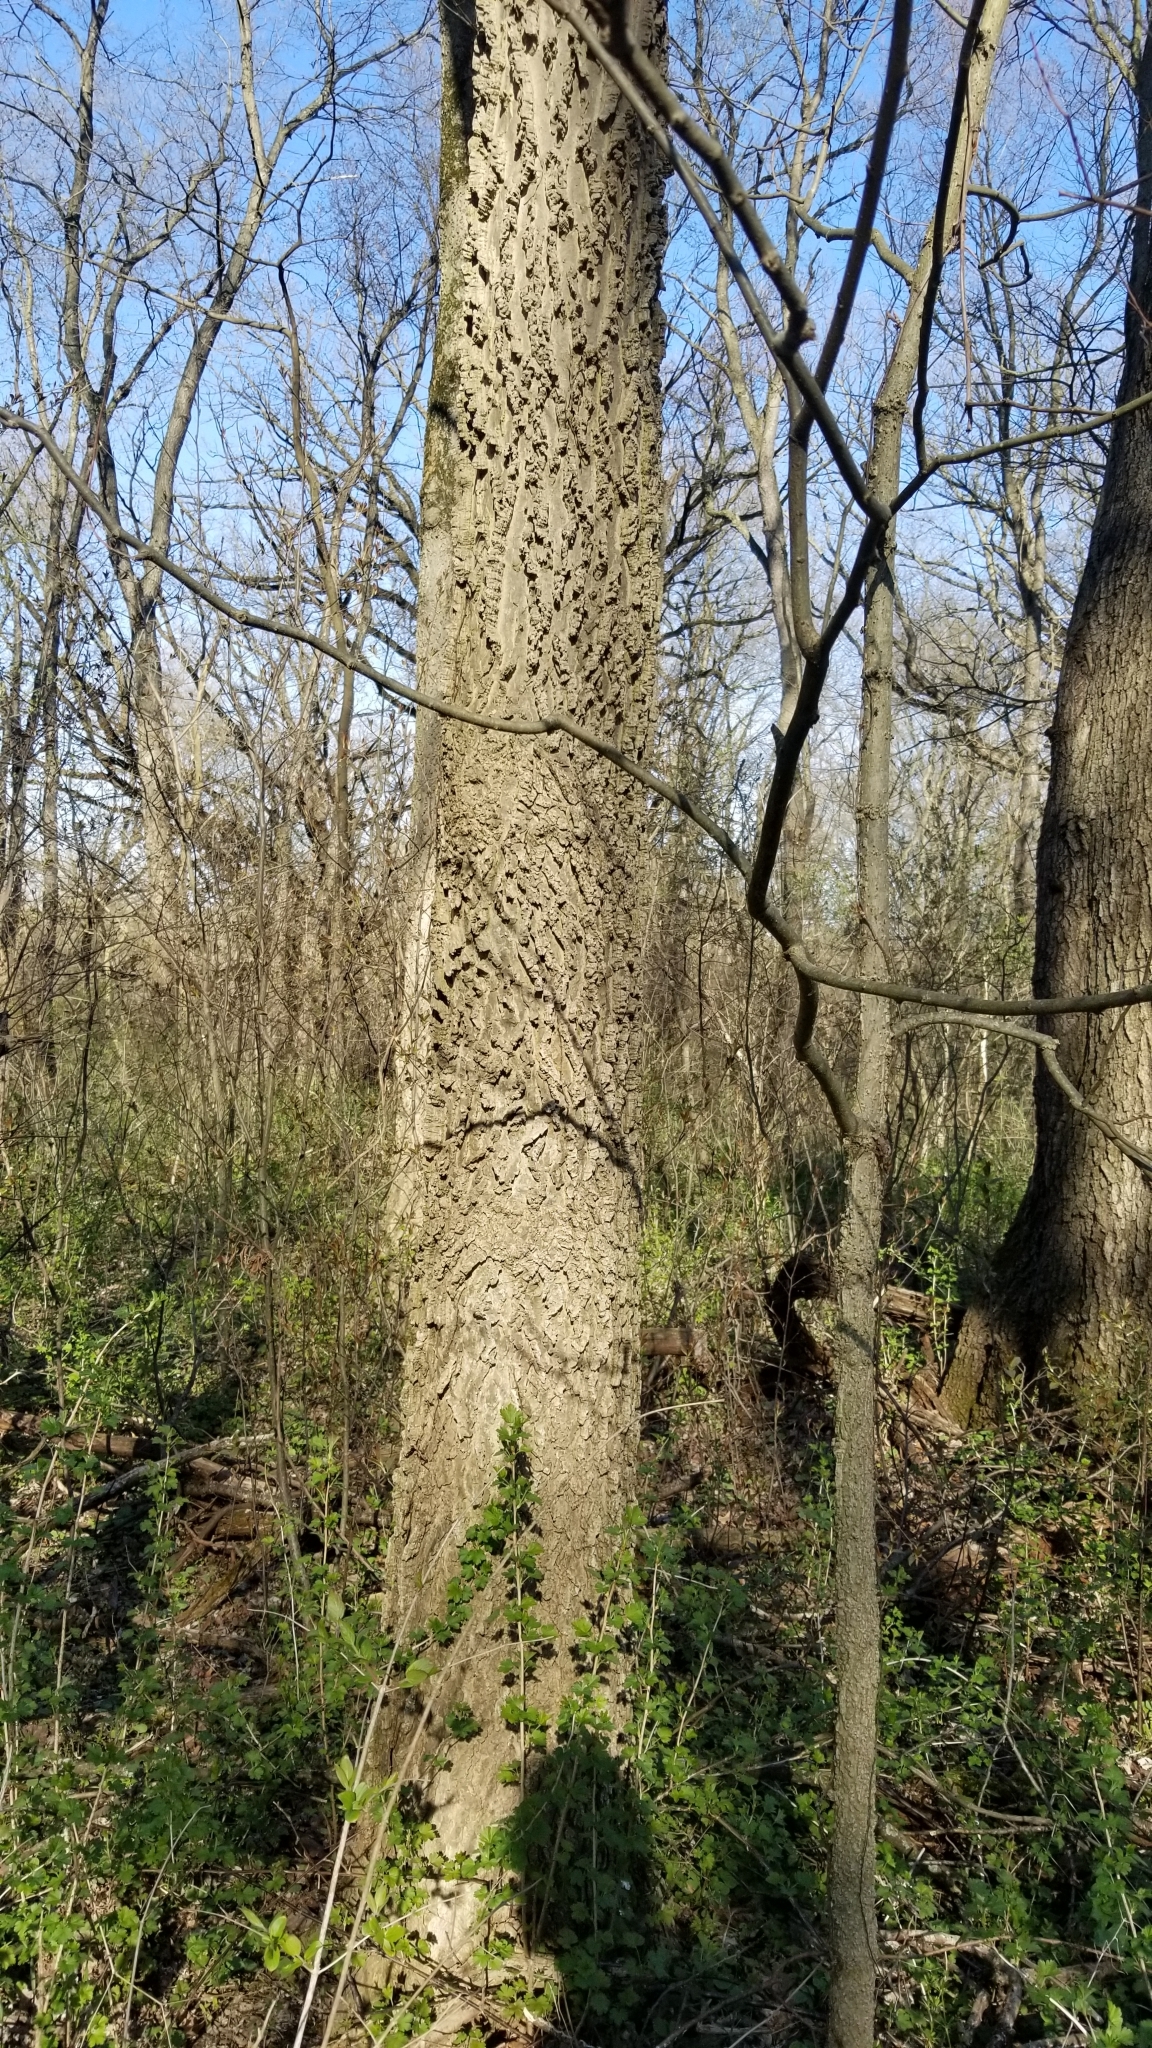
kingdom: Plantae
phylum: Tracheophyta
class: Magnoliopsida
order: Rosales
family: Cannabaceae
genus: Celtis
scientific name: Celtis occidentalis
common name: Common hackberry
